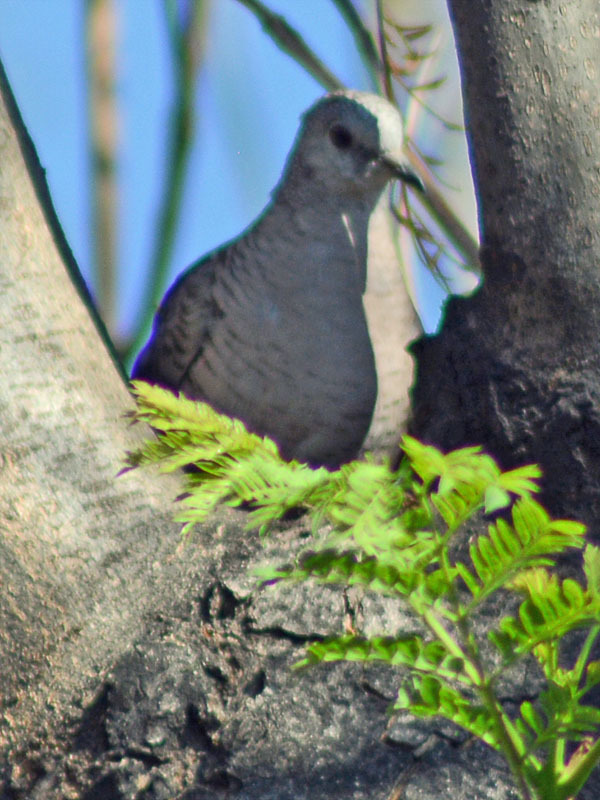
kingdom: Animalia
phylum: Chordata
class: Aves
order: Columbiformes
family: Columbidae
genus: Columbina
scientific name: Columbina inca
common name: Inca dove
